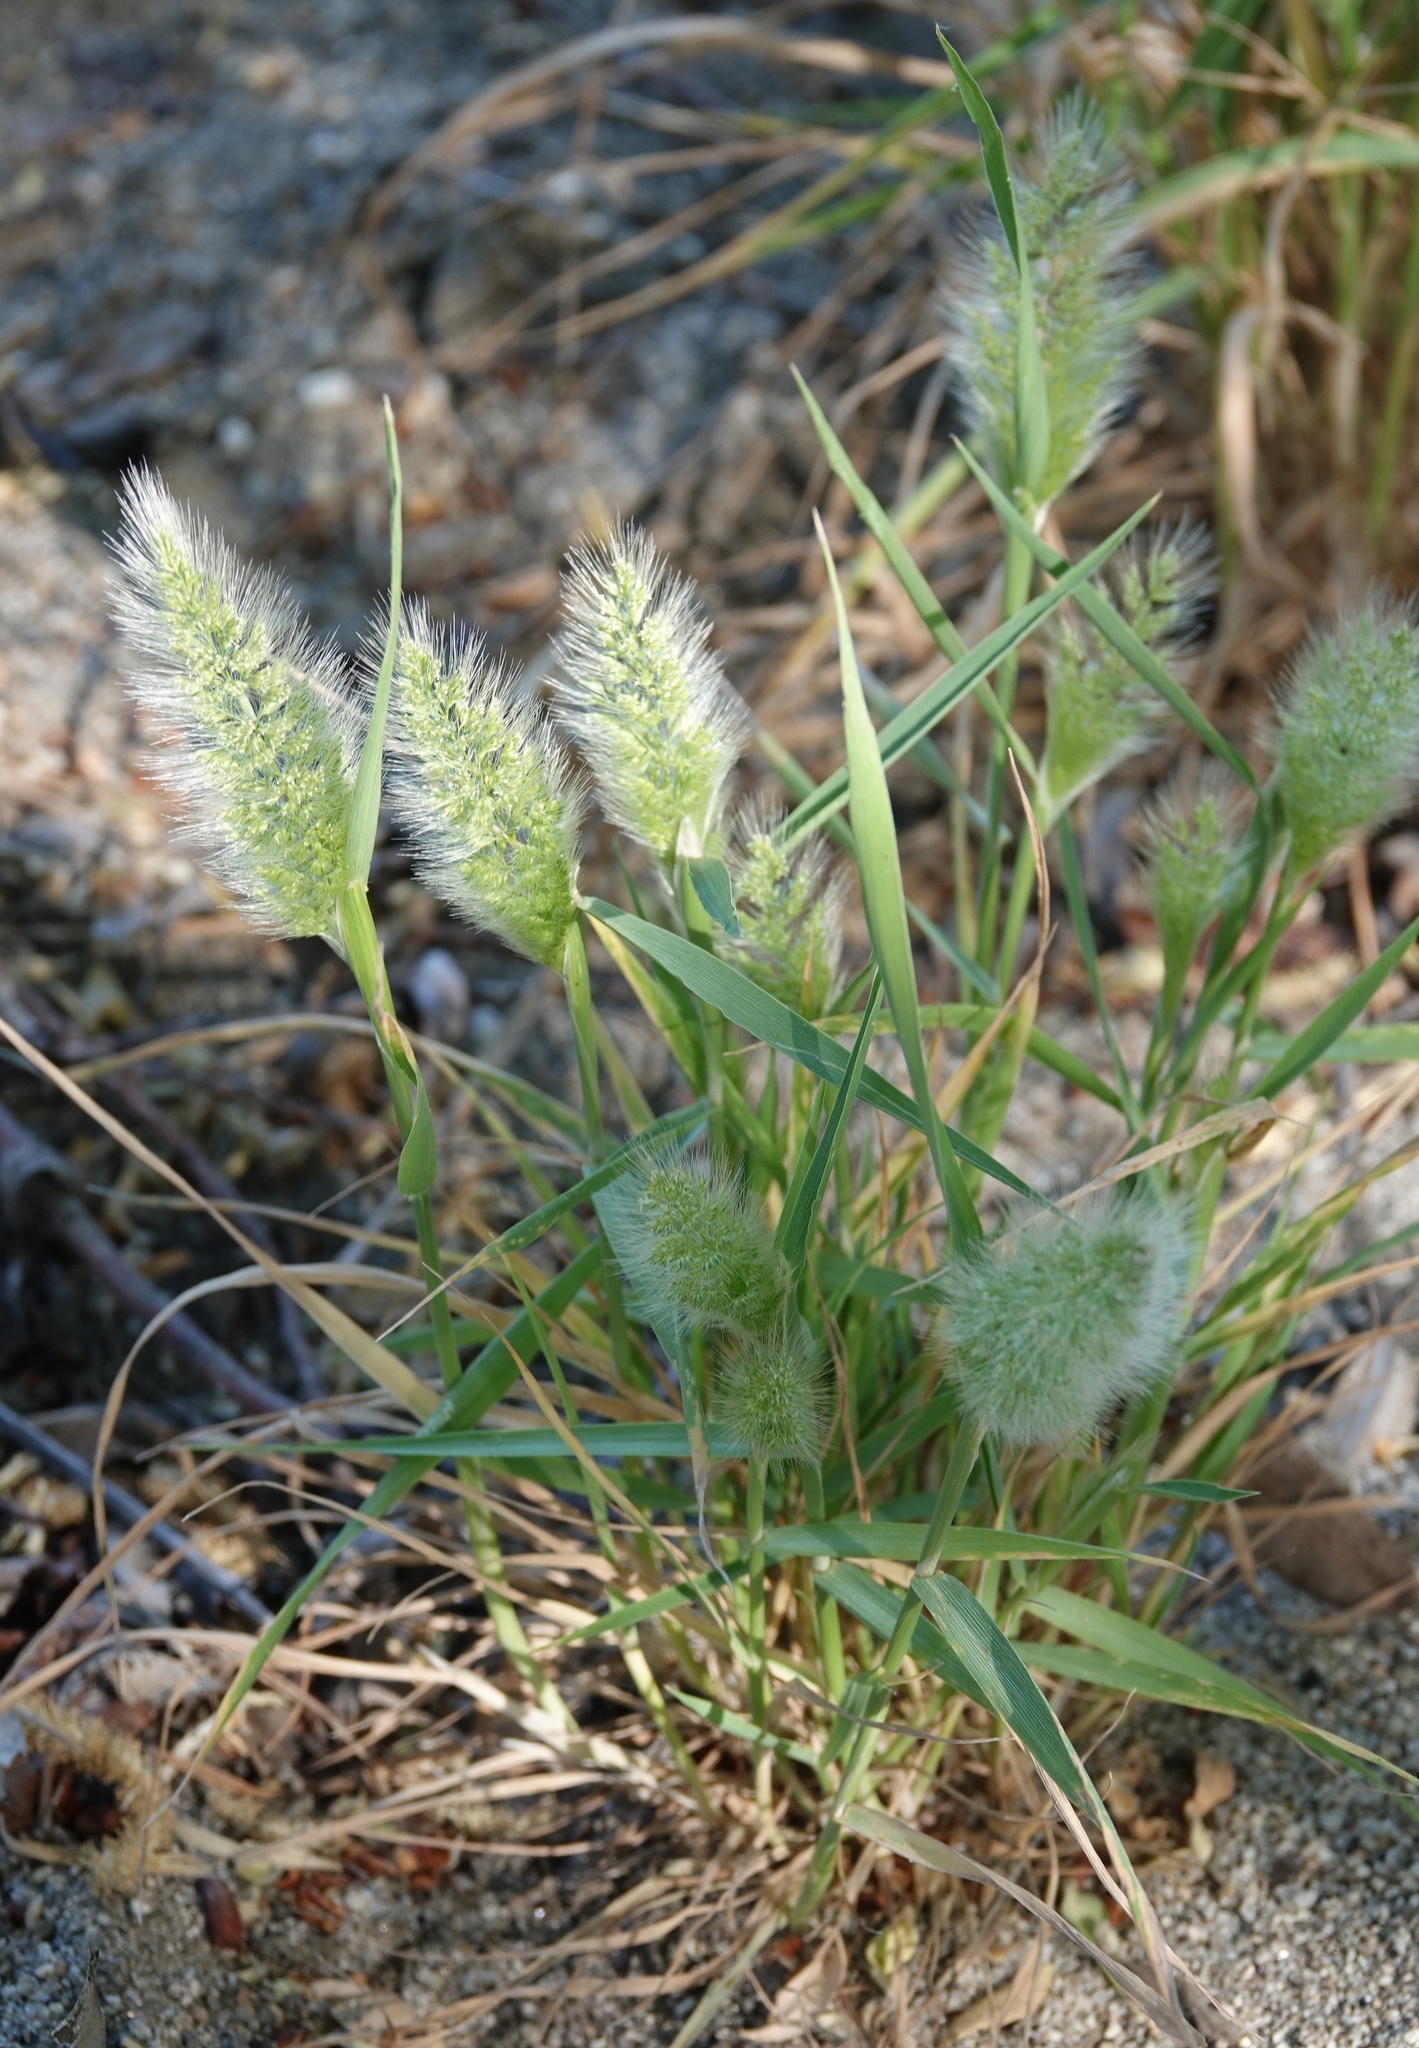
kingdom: Plantae
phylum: Tracheophyta
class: Liliopsida
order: Poales
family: Poaceae
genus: Polypogon
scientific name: Polypogon monspeliensis
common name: Annual rabbitsfoot grass
